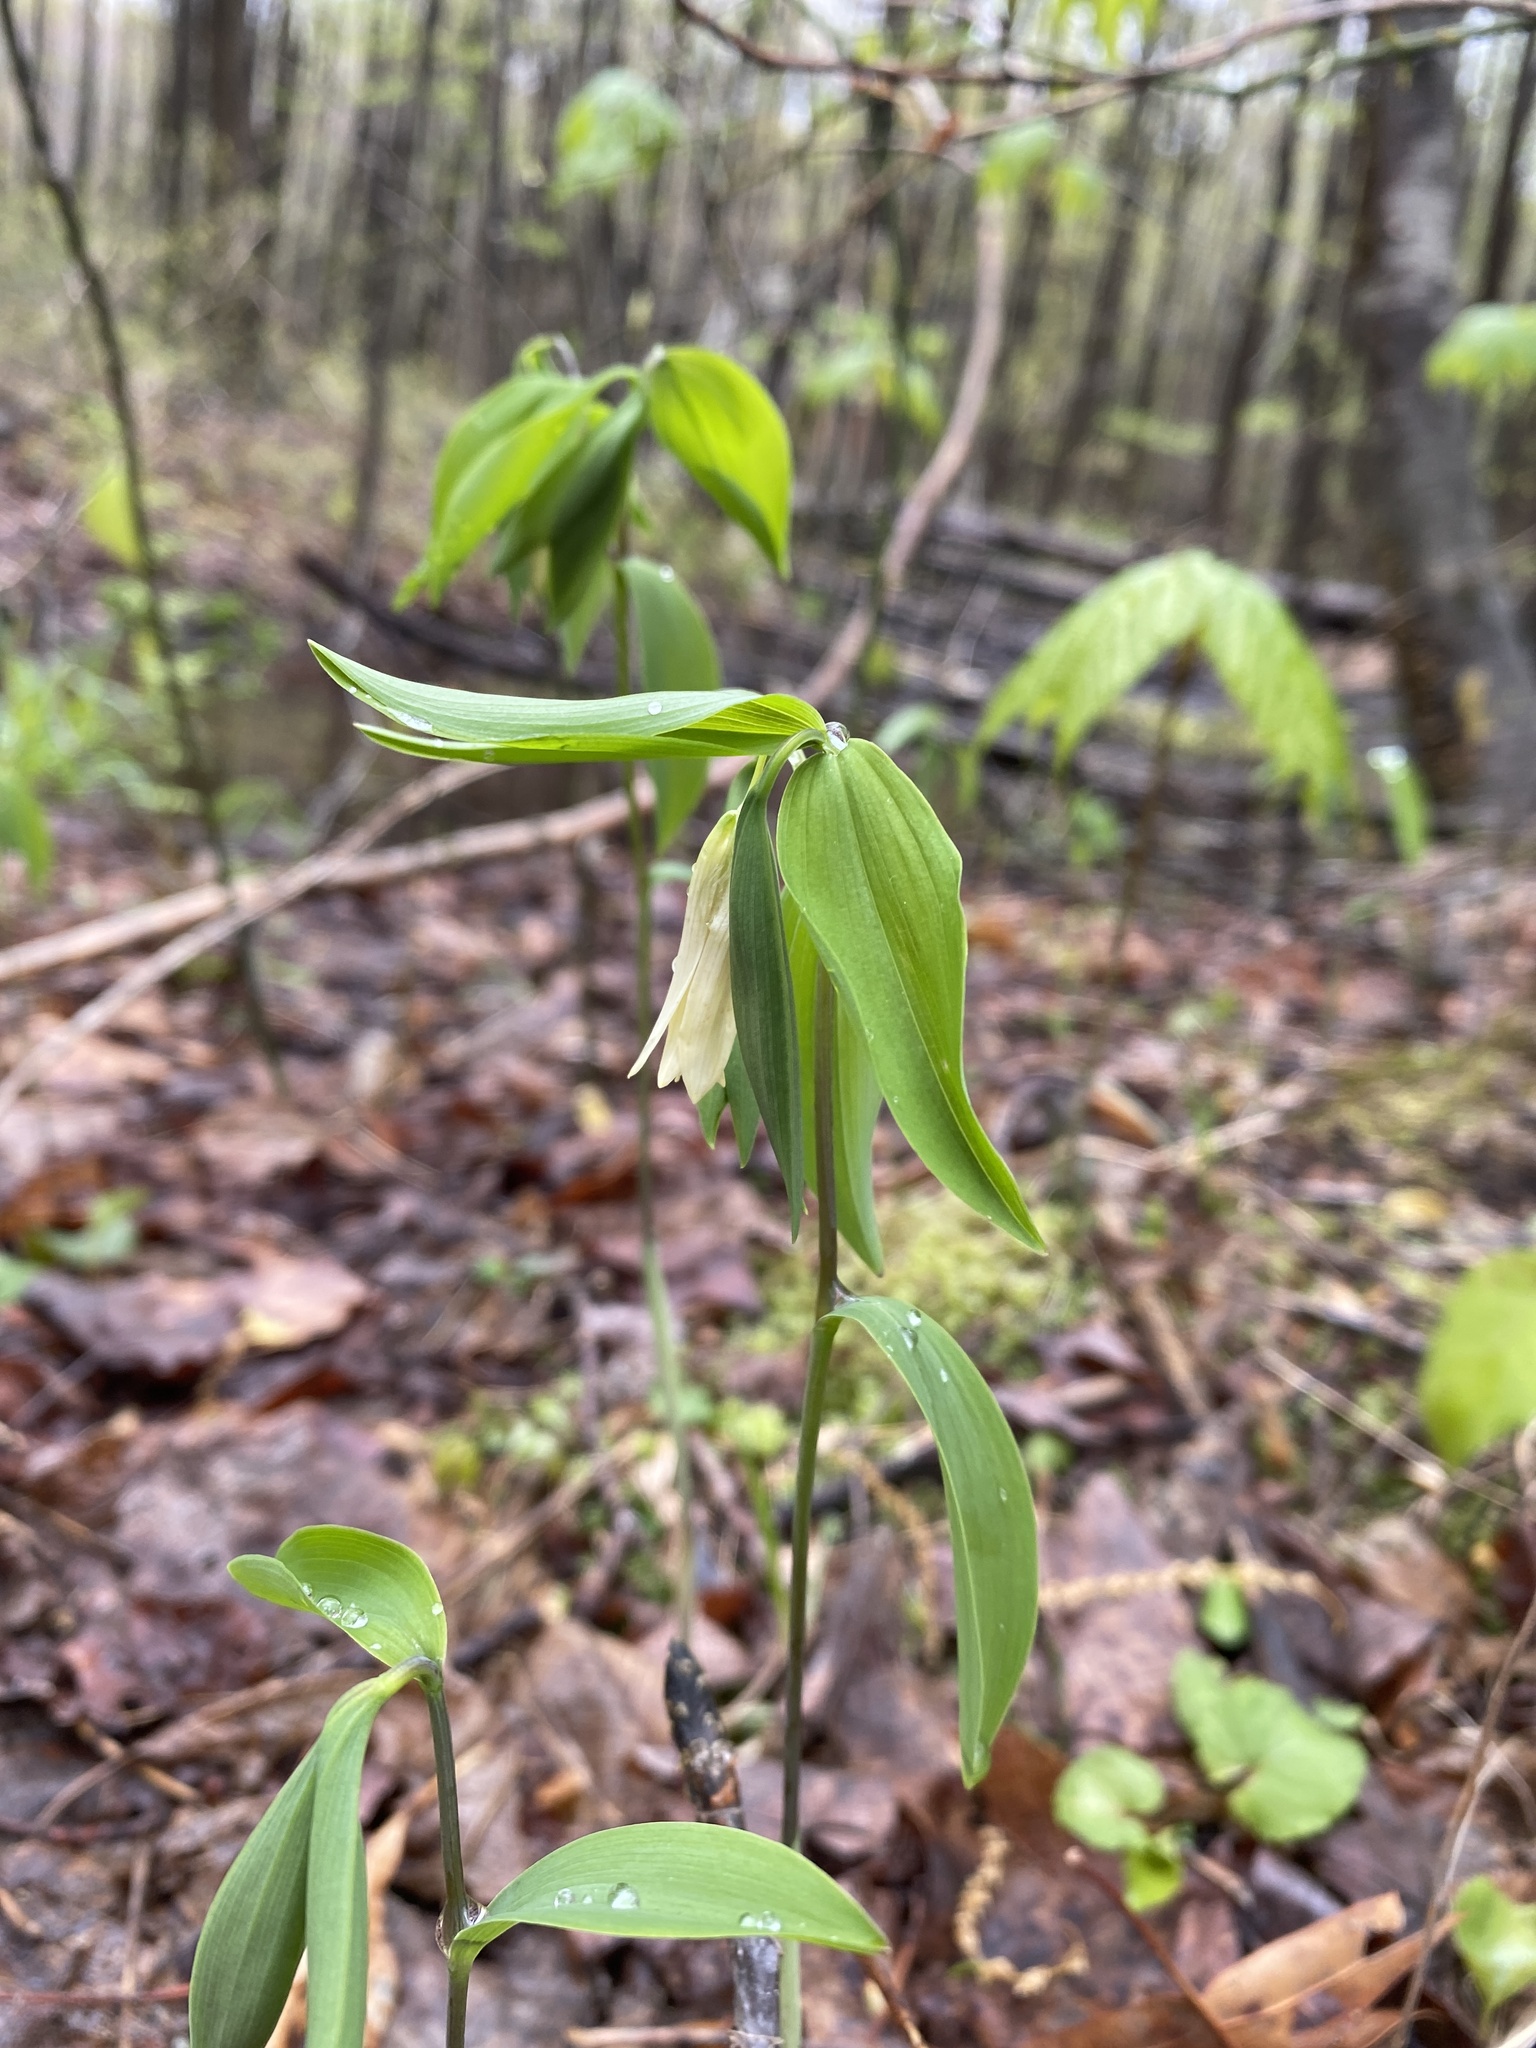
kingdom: Plantae
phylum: Tracheophyta
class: Liliopsida
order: Liliales
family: Colchicaceae
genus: Uvularia
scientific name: Uvularia sessilifolia
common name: Straw-lily
